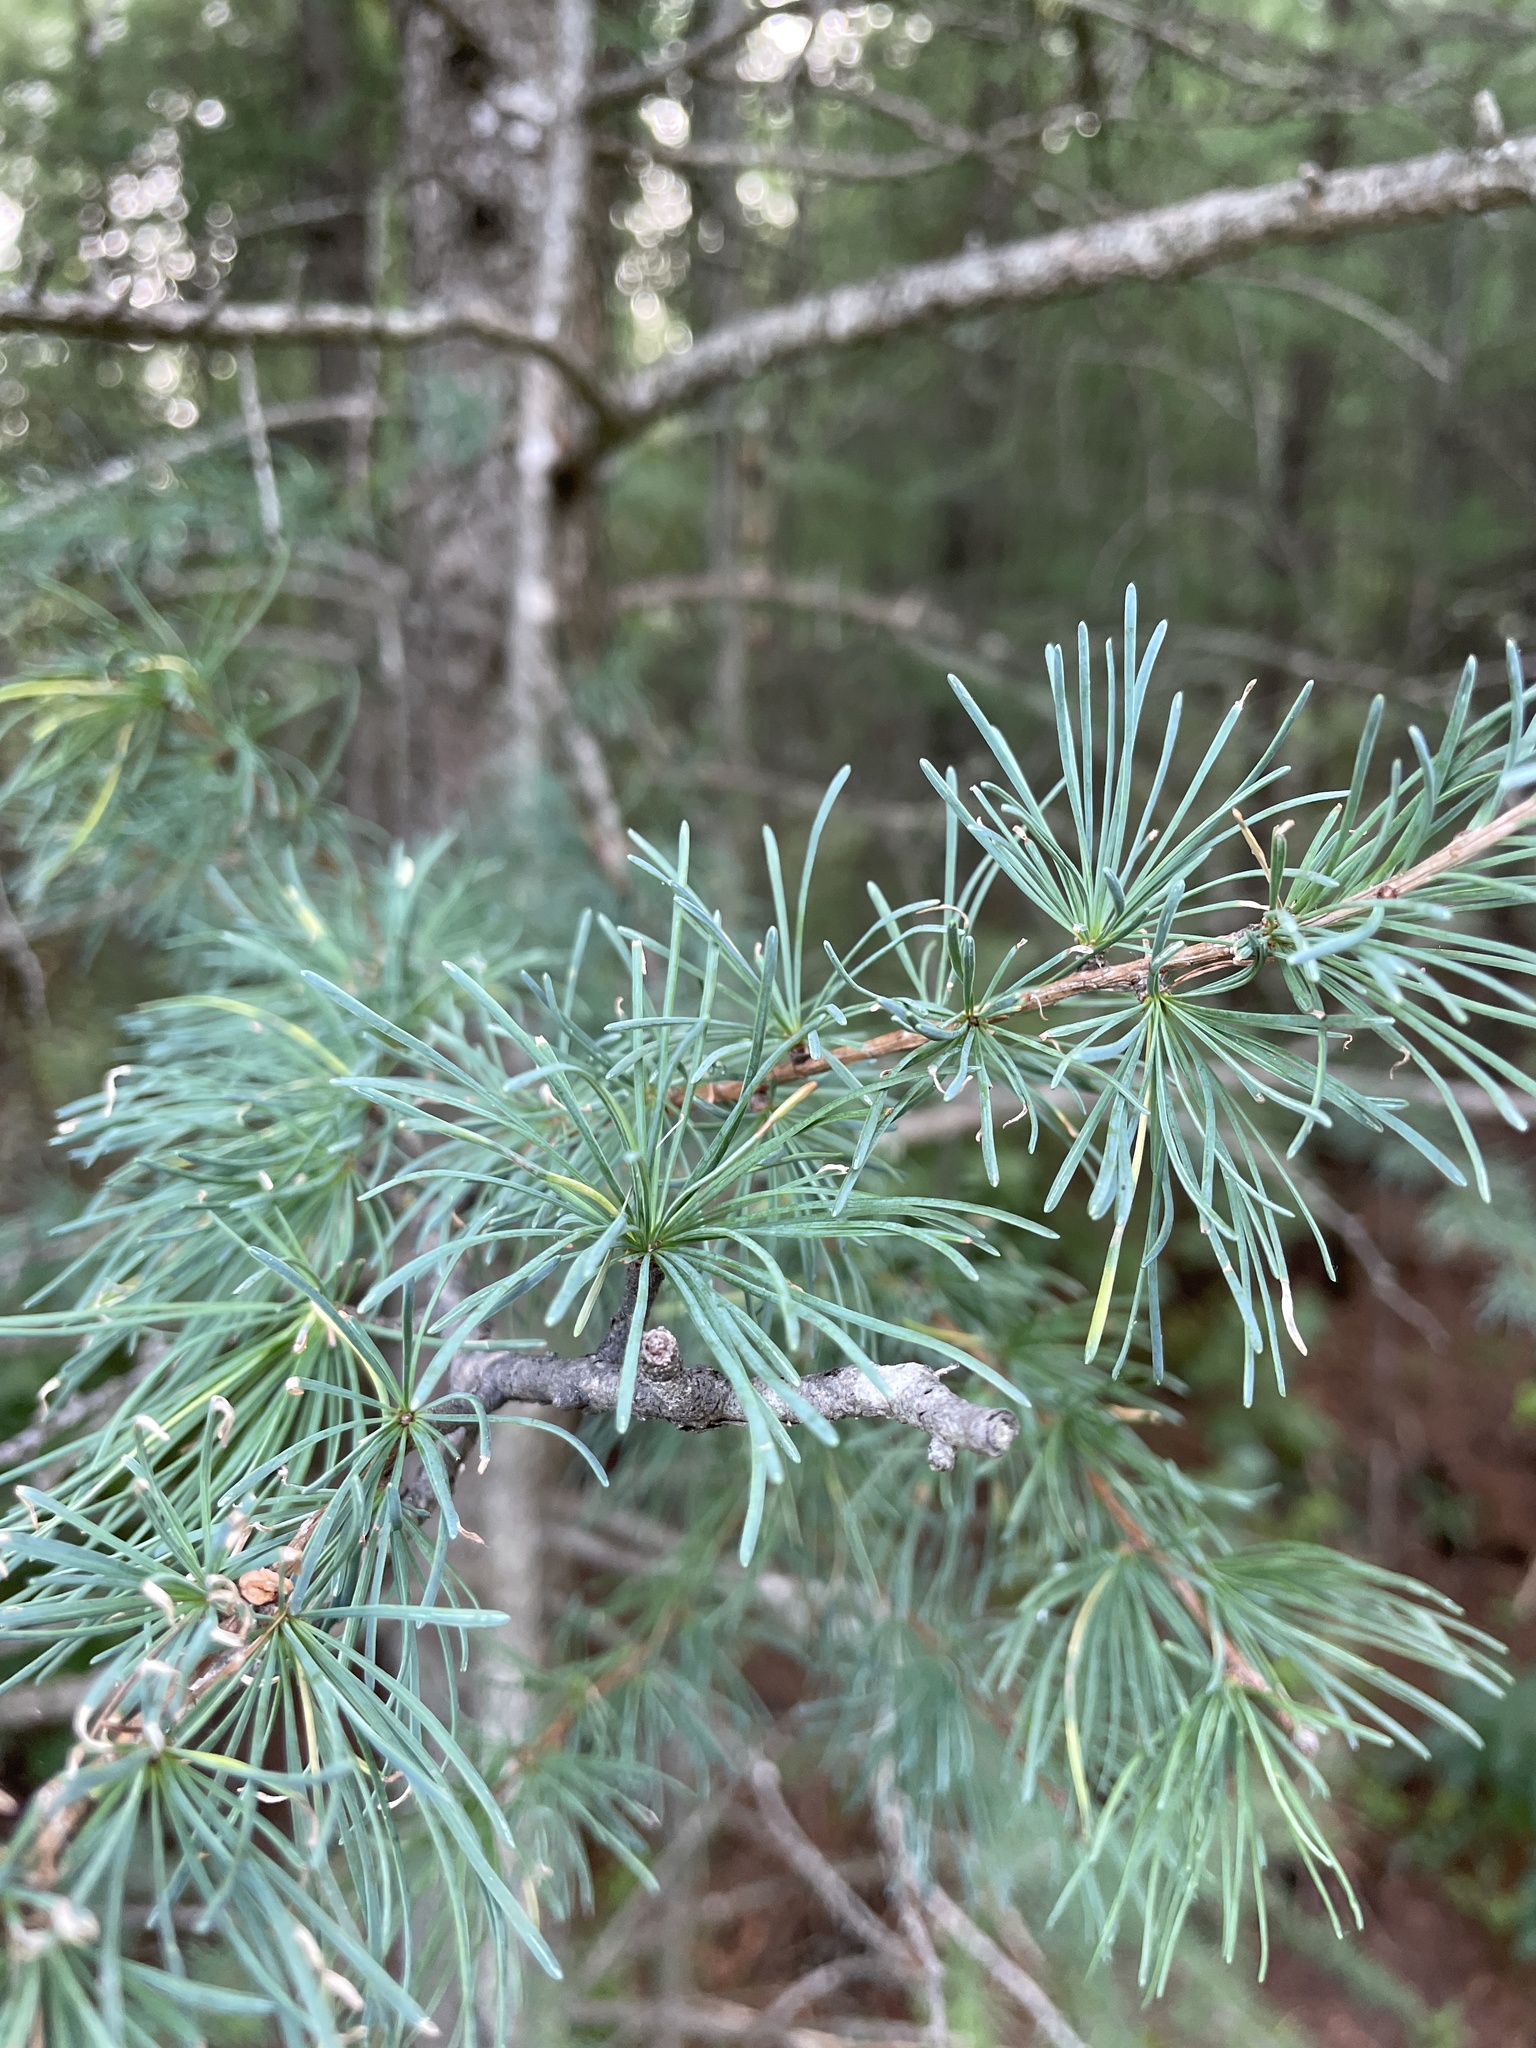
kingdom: Plantae
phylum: Tracheophyta
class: Pinopsida
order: Pinales
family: Pinaceae
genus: Larix
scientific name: Larix laricina
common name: American larch
